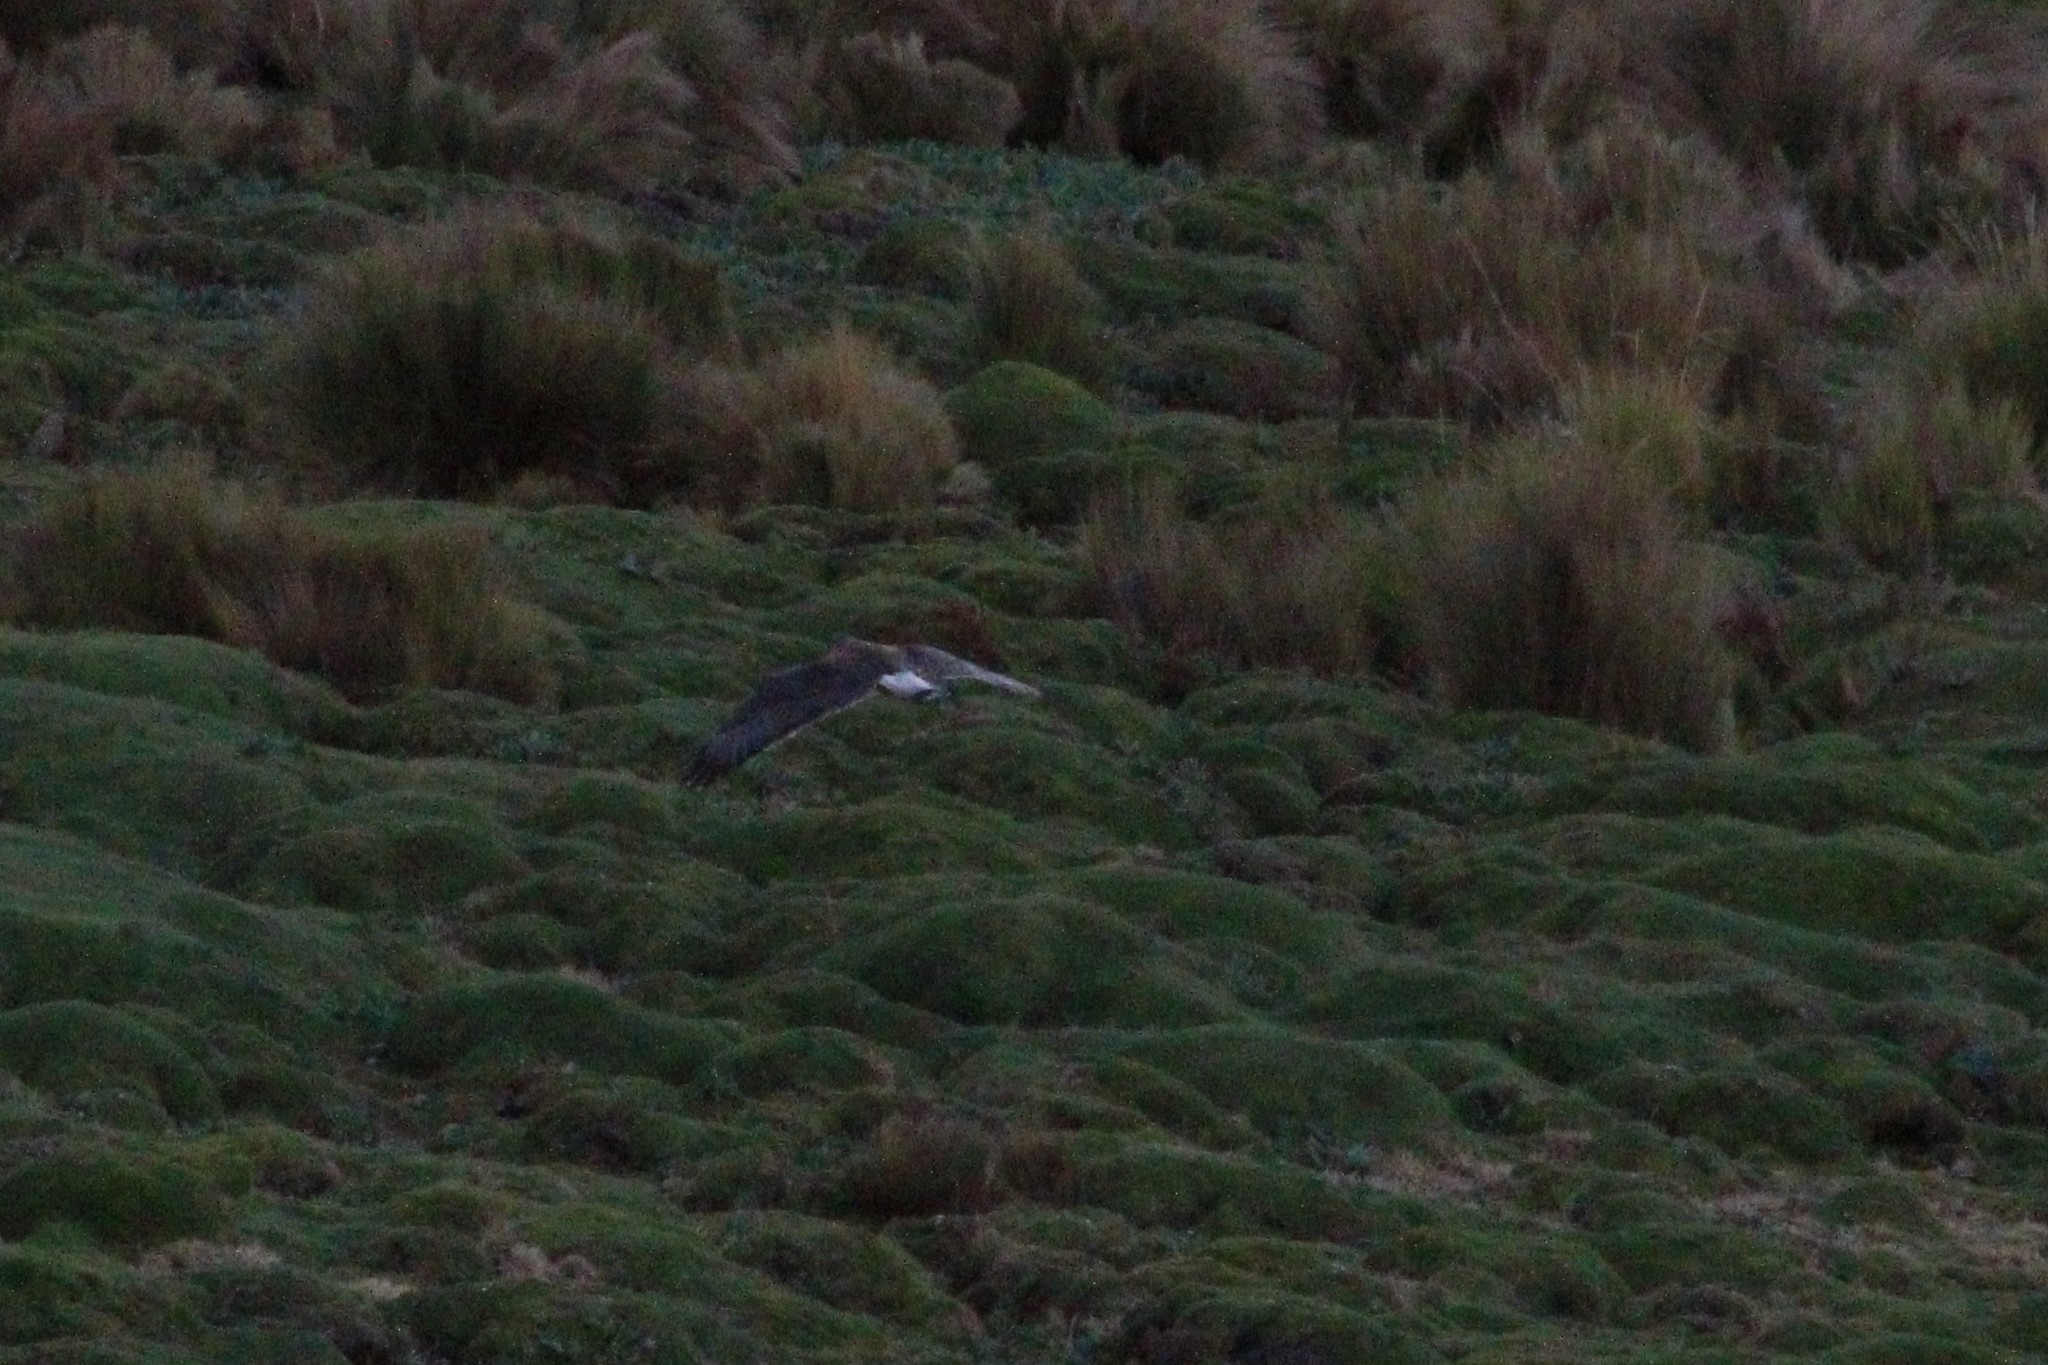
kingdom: Animalia
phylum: Chordata
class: Aves
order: Accipitriformes
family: Accipitridae
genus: Buteo
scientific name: Buteo polyosoma
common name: Variable hawk
